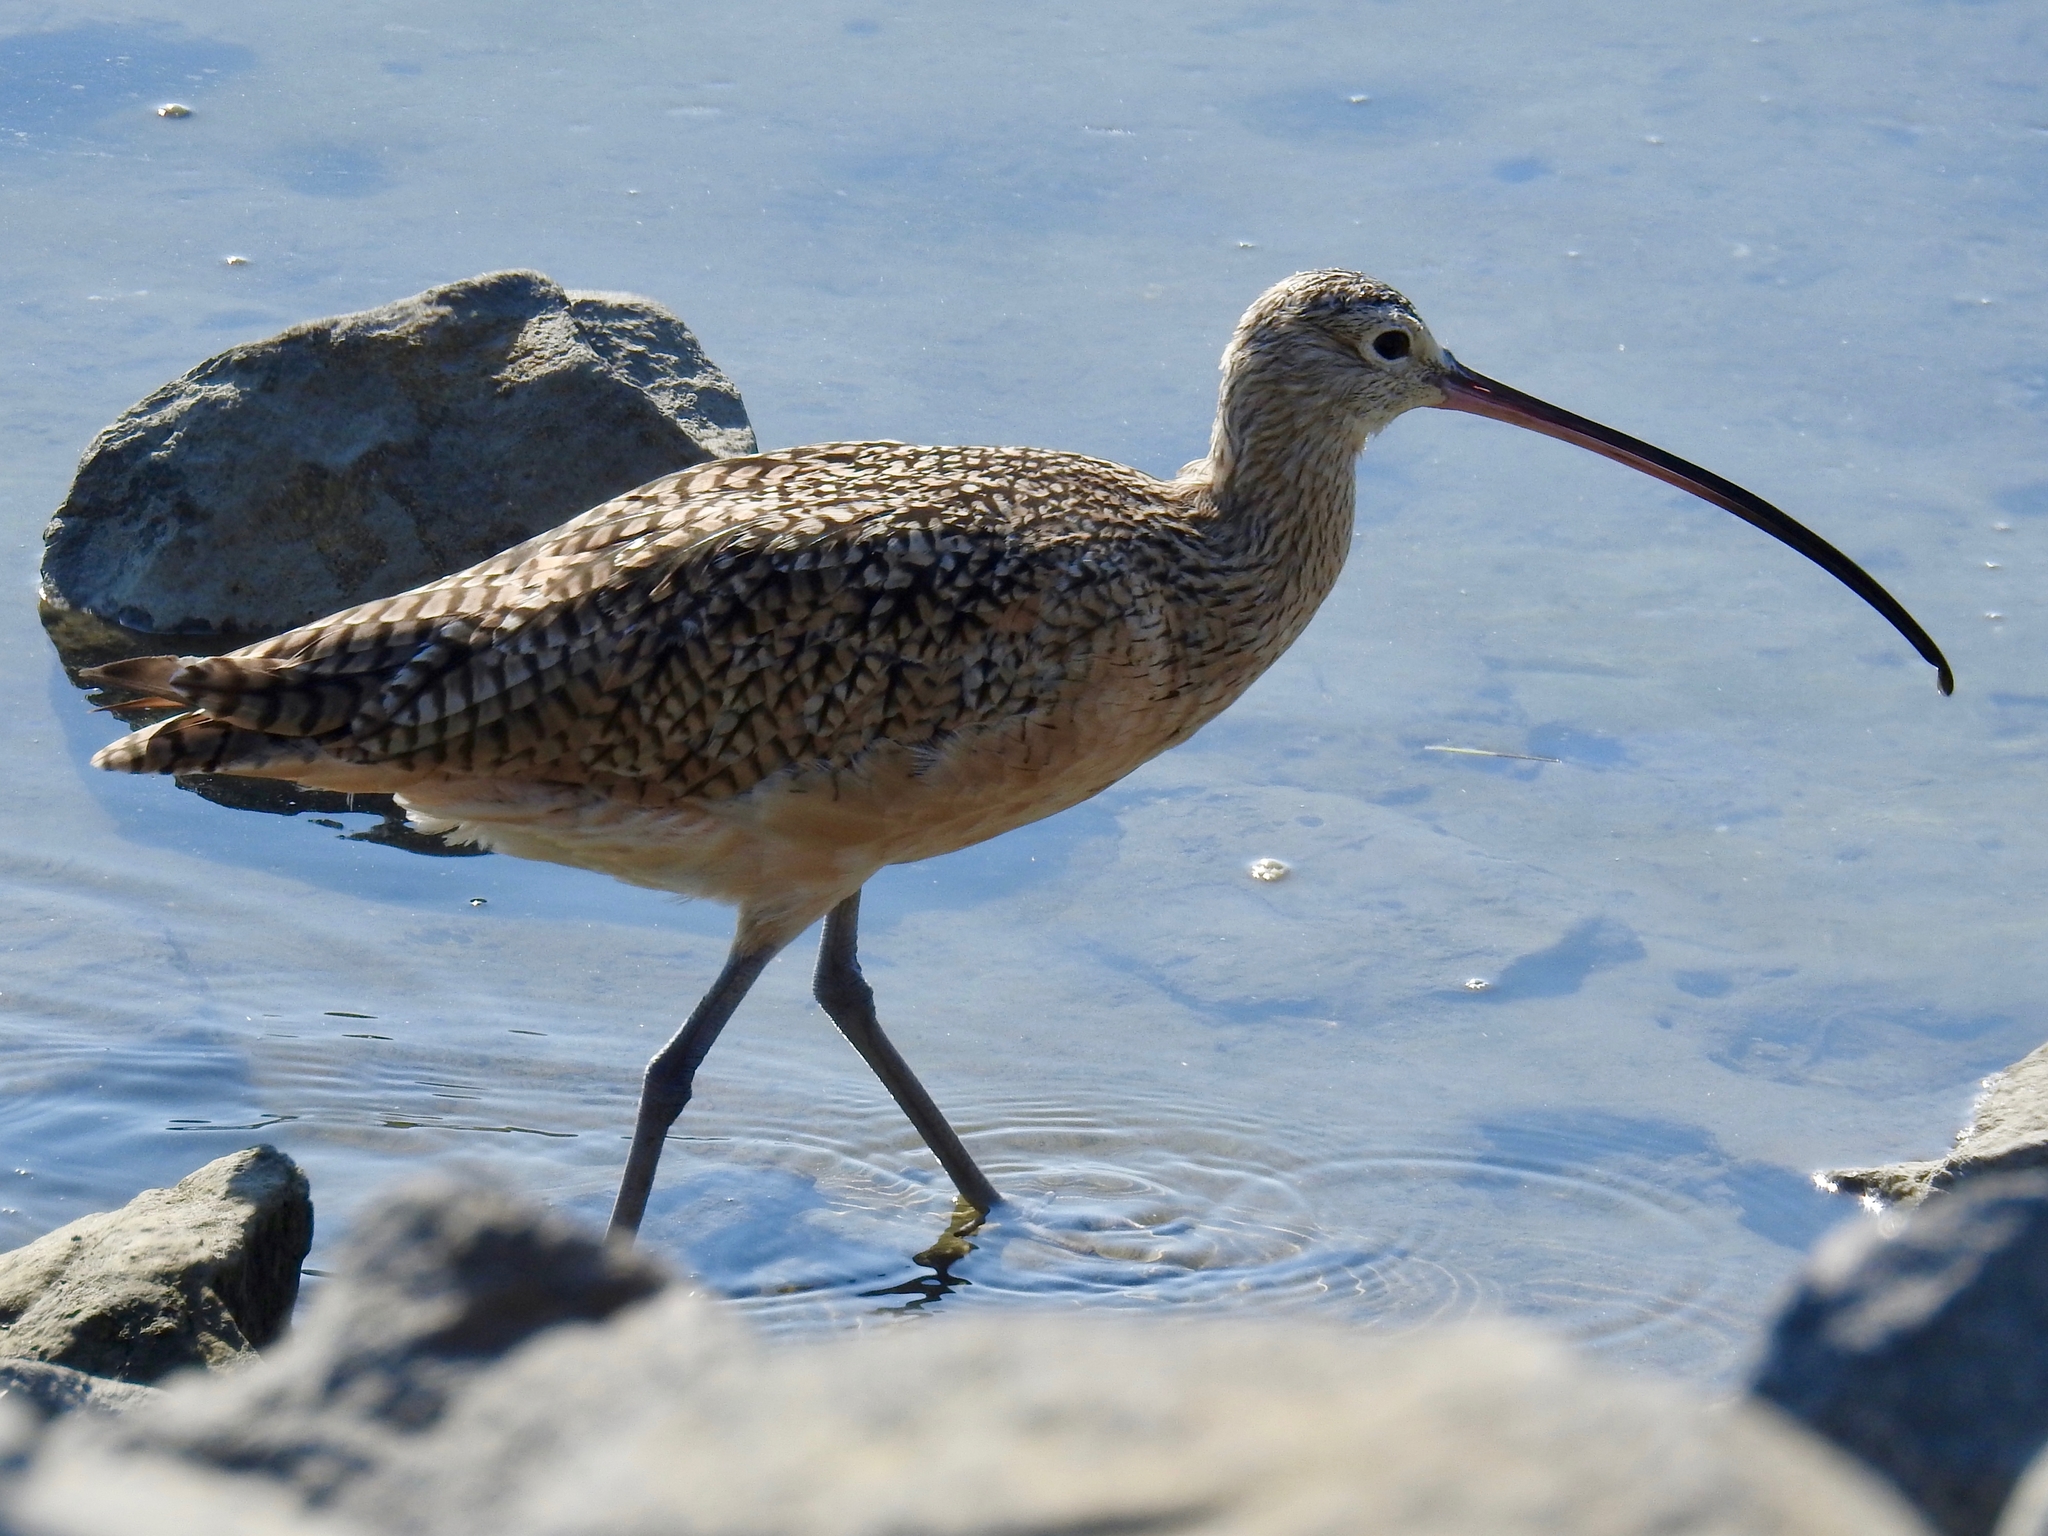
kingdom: Animalia
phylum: Chordata
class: Aves
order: Charadriiformes
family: Scolopacidae
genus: Numenius
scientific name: Numenius americanus
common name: Long-billed curlew
